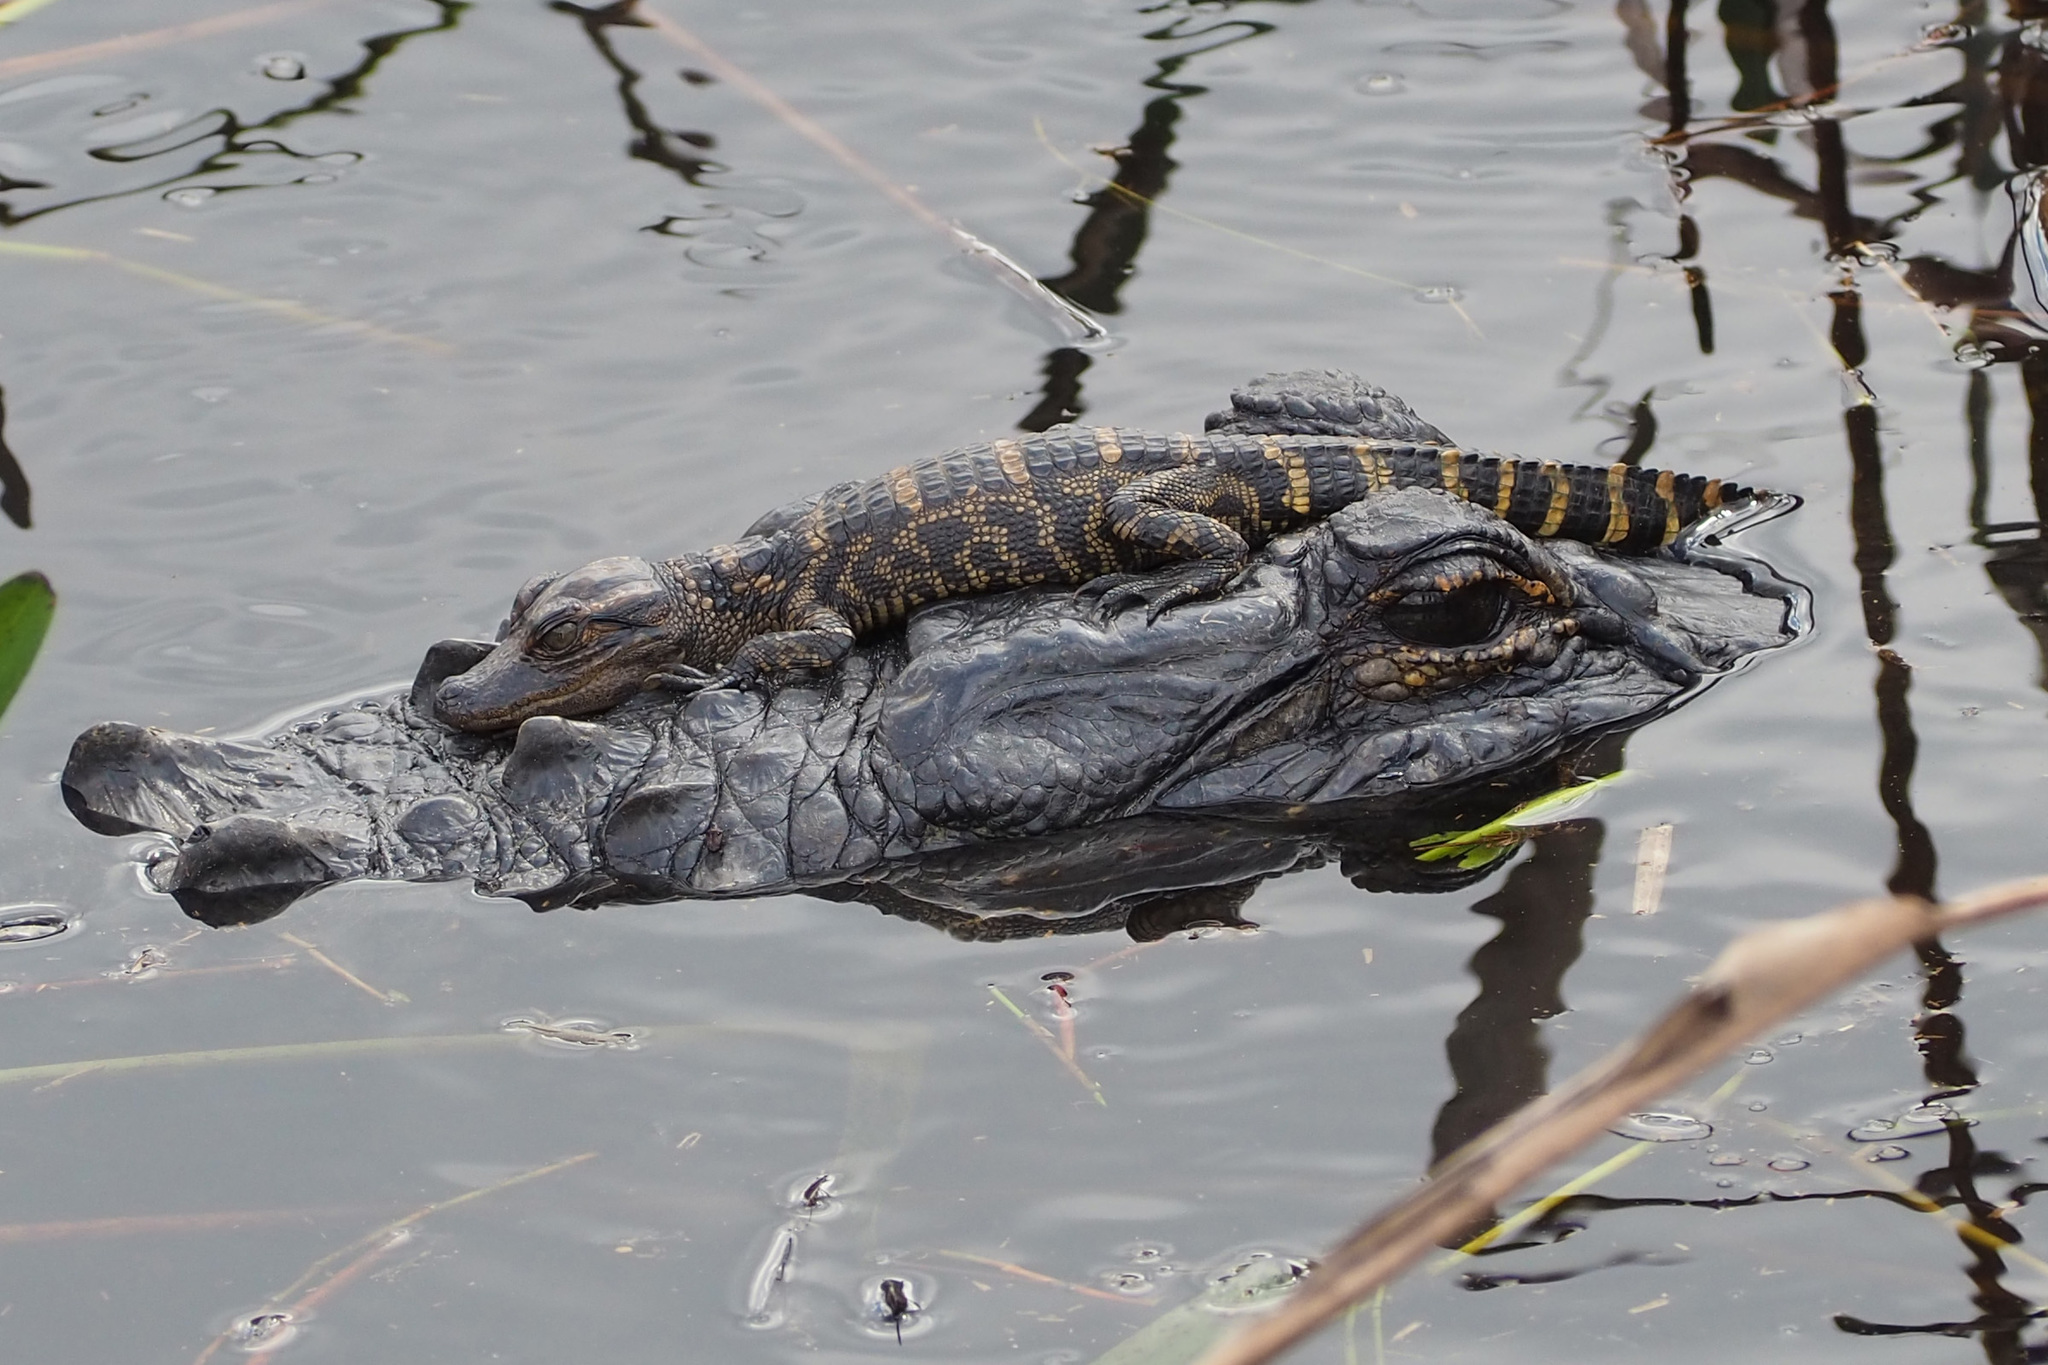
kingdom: Animalia
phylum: Chordata
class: Crocodylia
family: Alligatoridae
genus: Alligator
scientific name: Alligator mississippiensis
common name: American alligator
